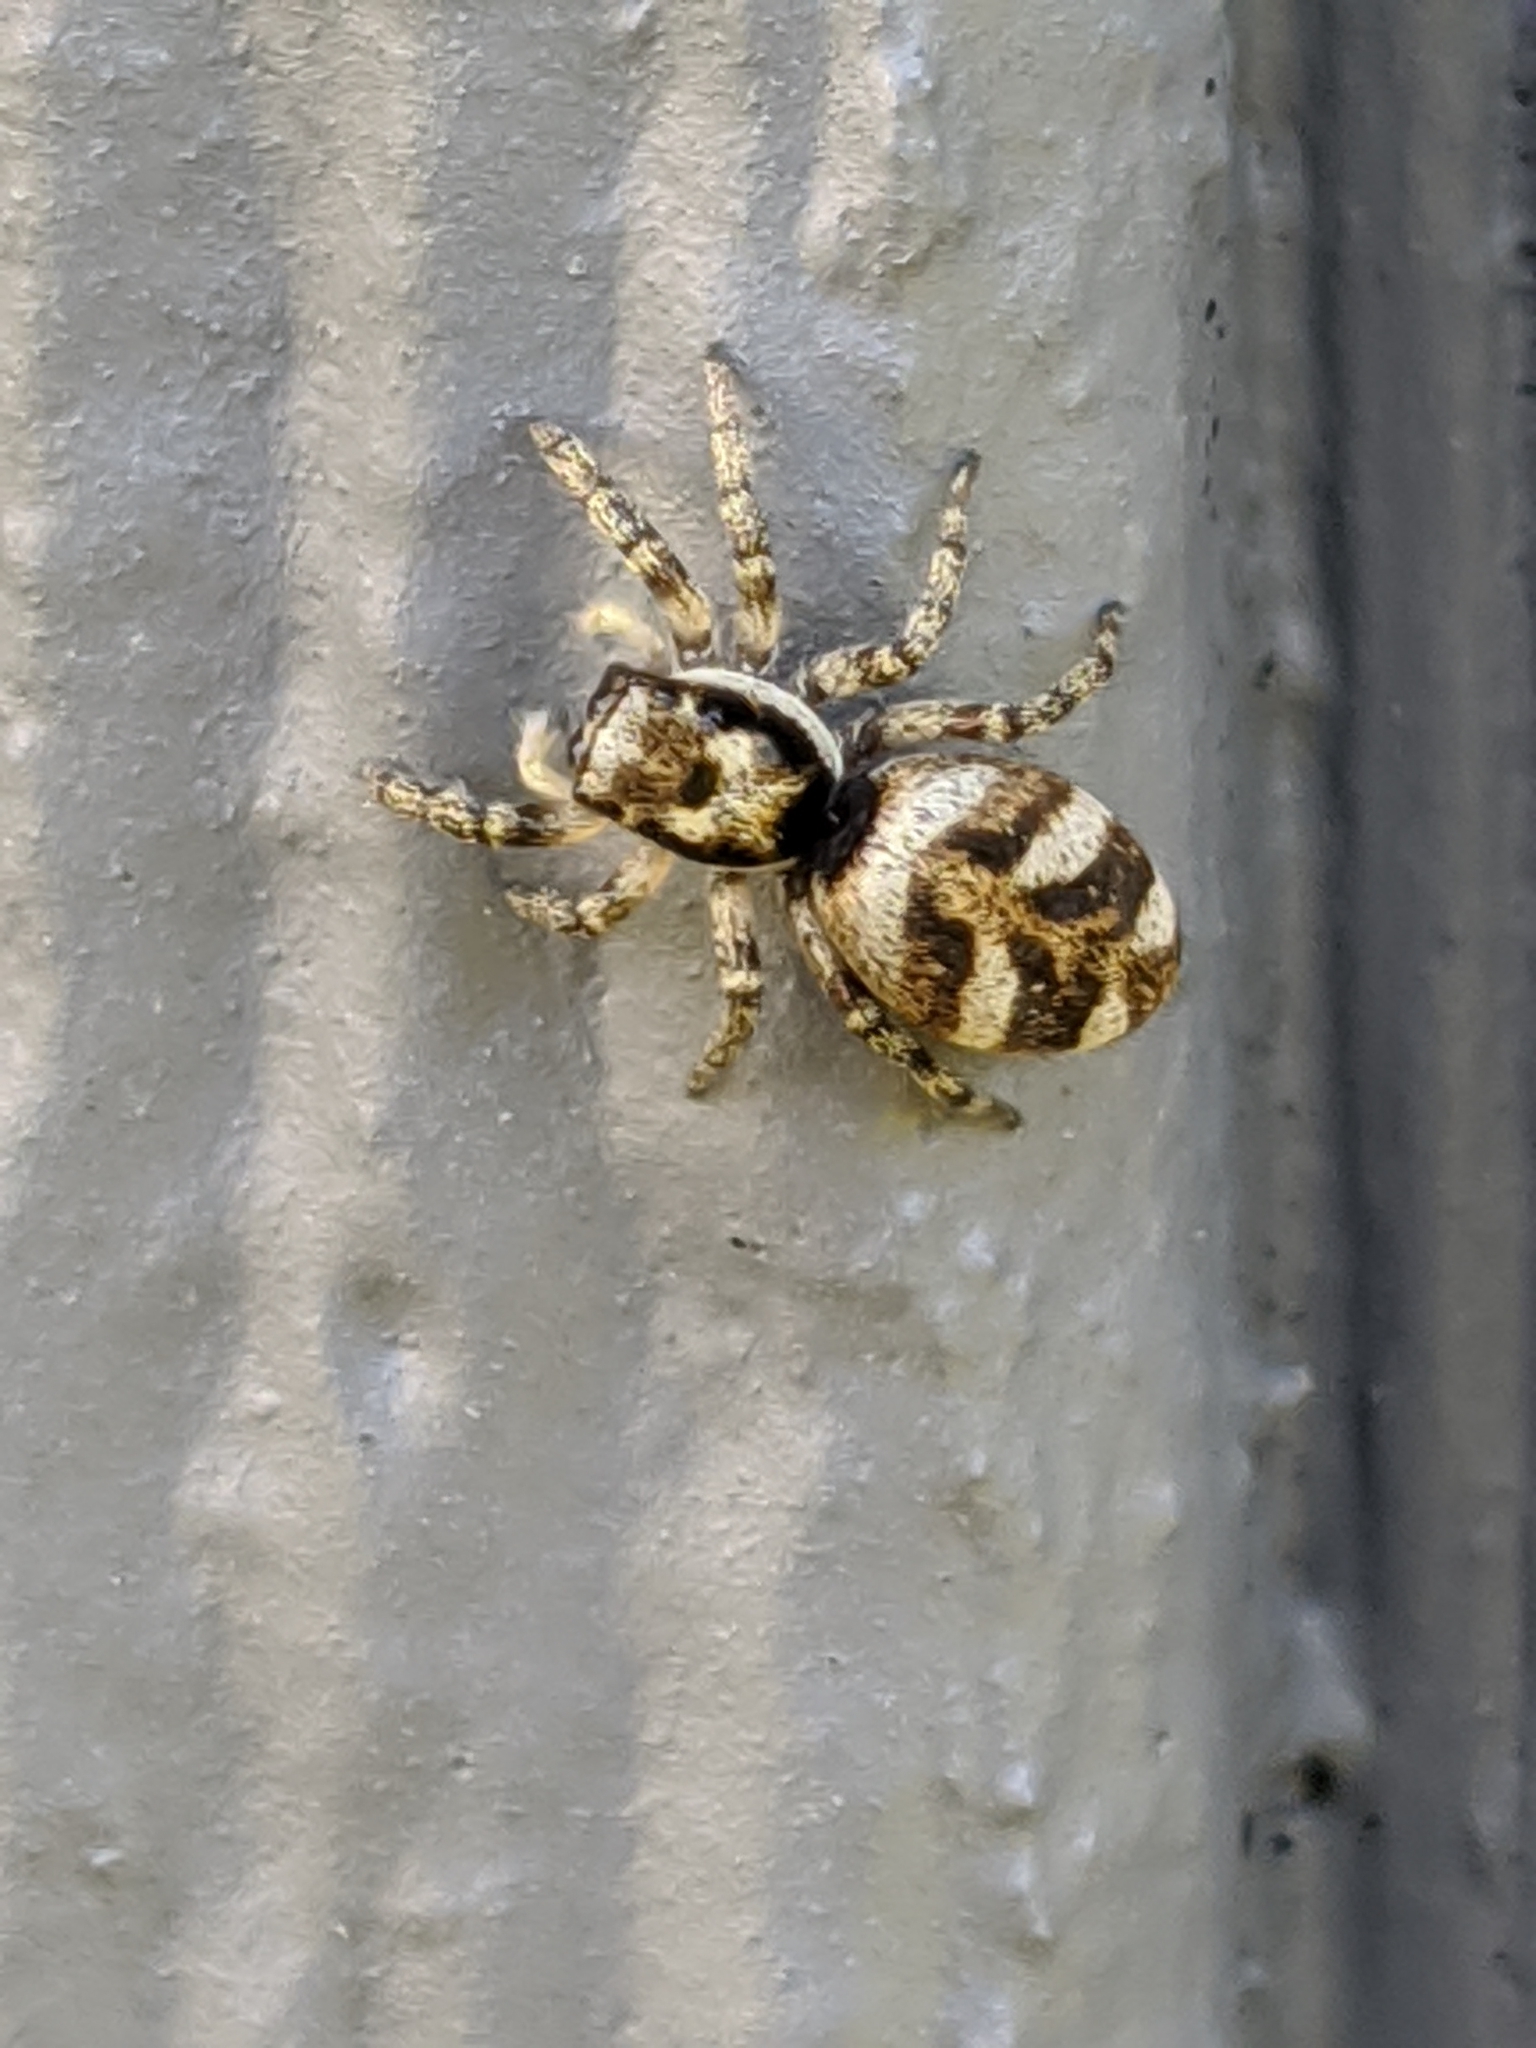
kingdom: Animalia
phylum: Arthropoda
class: Arachnida
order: Araneae
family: Salticidae
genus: Salticus
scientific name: Salticus scenicus
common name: Zebra jumper
